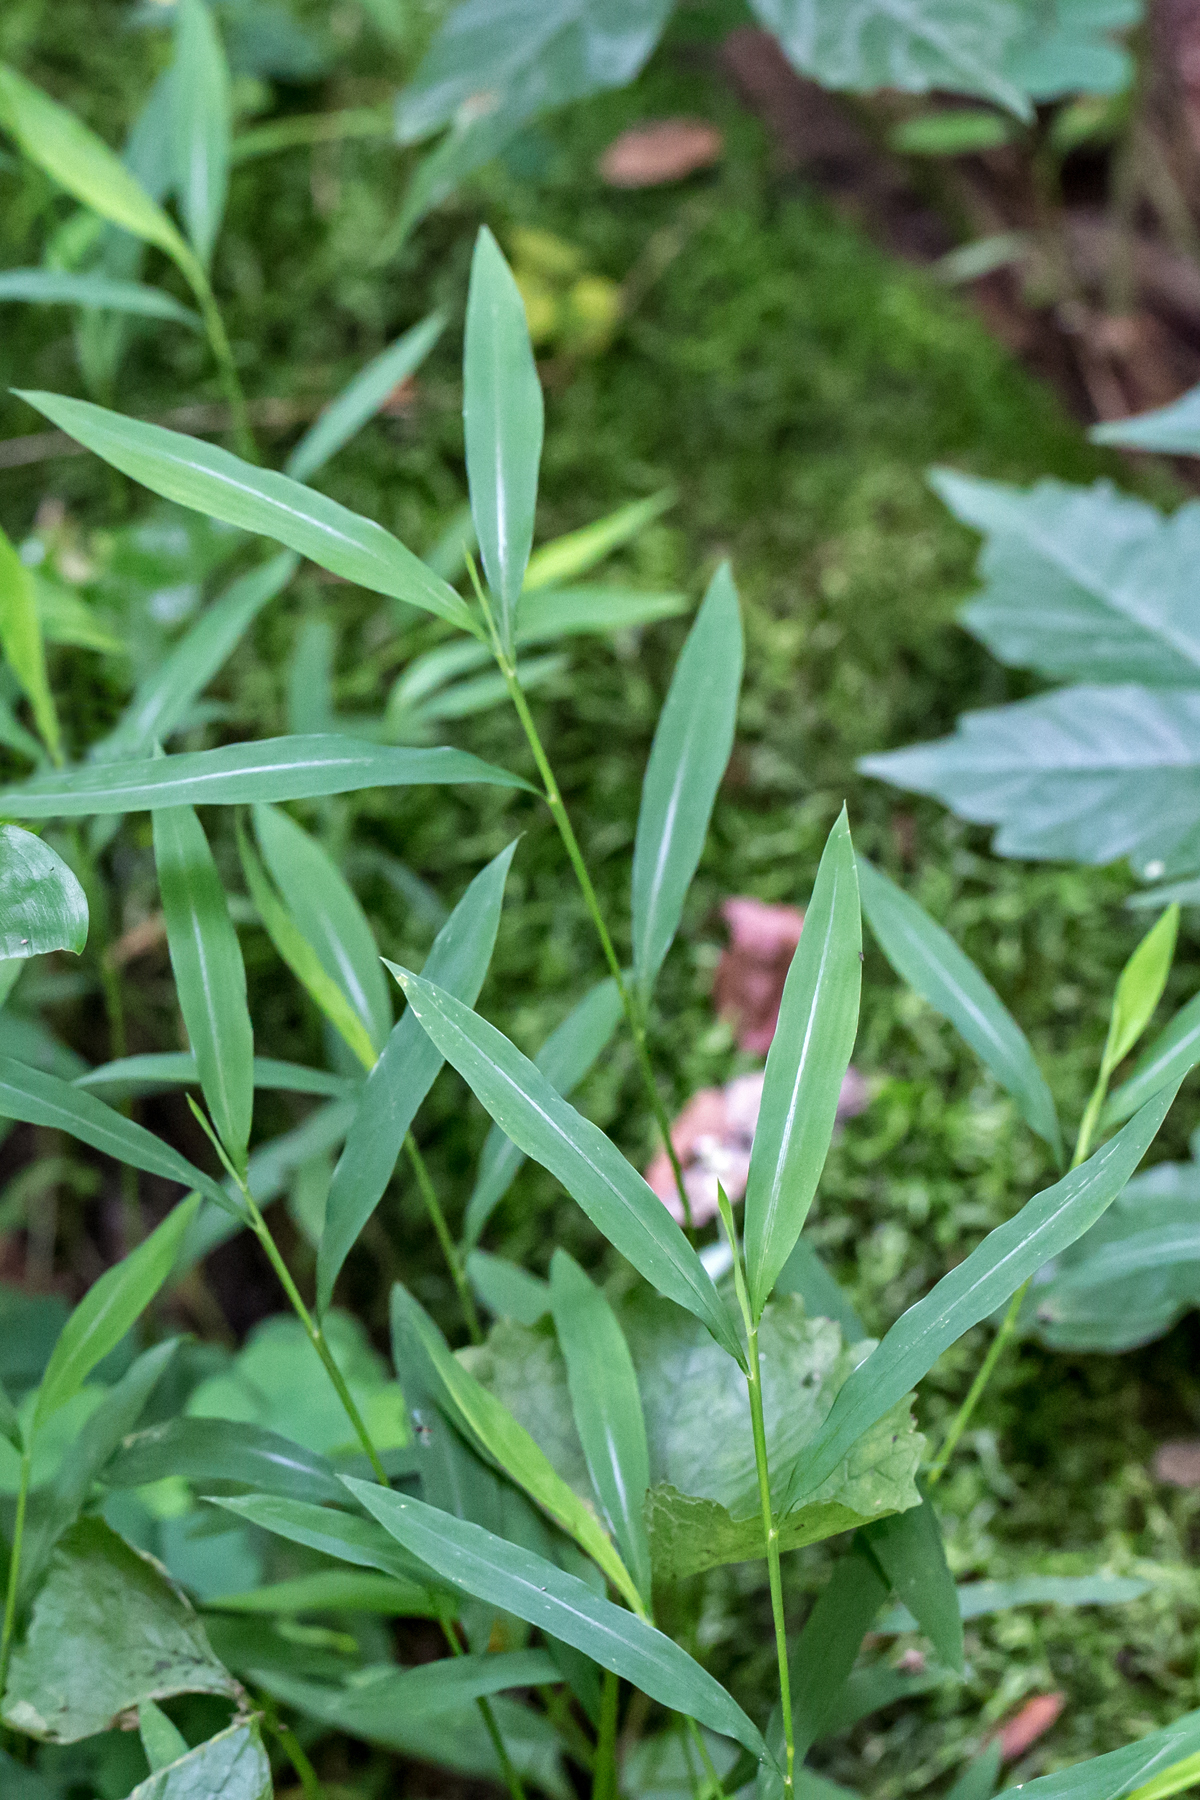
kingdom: Plantae
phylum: Tracheophyta
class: Liliopsida
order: Poales
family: Poaceae
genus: Microstegium
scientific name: Microstegium vimineum
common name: Japanese stiltgrass
